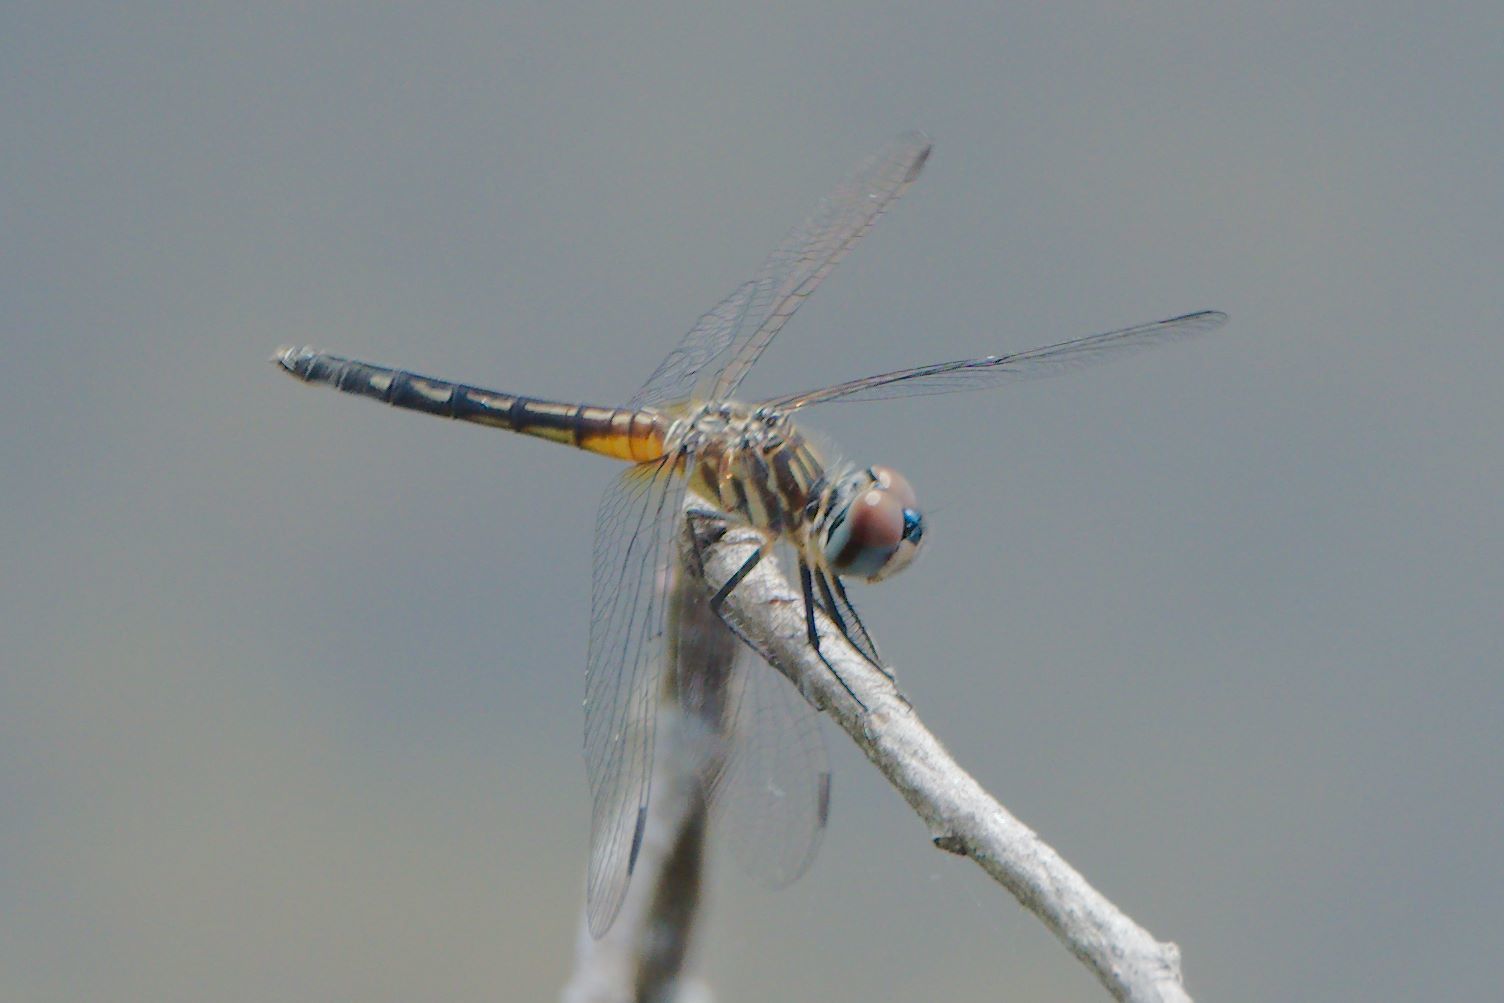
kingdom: Animalia
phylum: Arthropoda
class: Insecta
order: Odonata
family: Libellulidae
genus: Pachydiplax
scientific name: Pachydiplax longipennis
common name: Blue dasher
